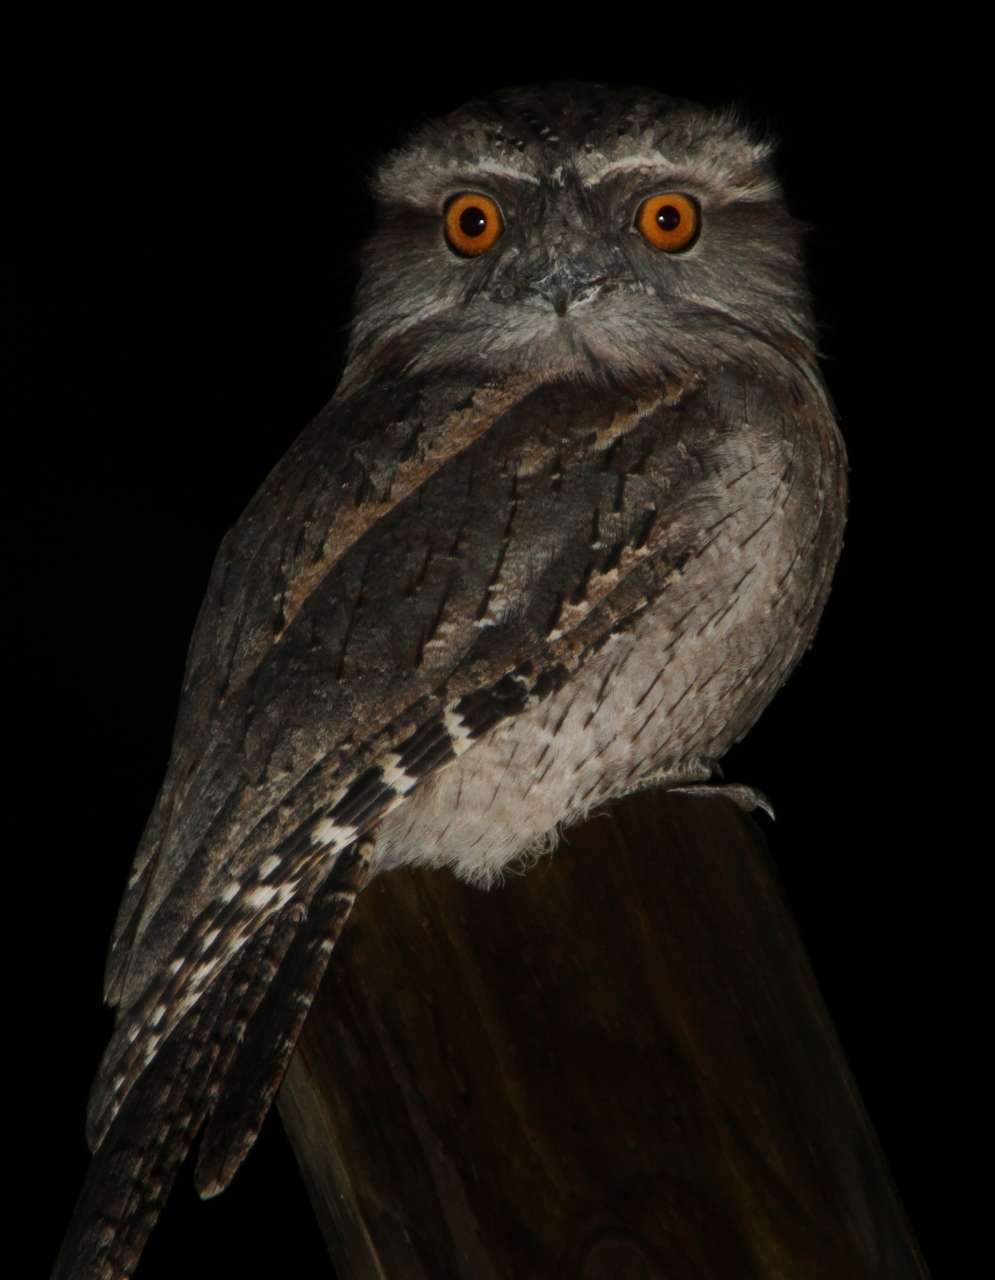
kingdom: Animalia
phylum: Chordata
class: Aves
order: Caprimulgiformes
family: Podargidae
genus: Podargus
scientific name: Podargus strigoides
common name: Tawny frogmouth
